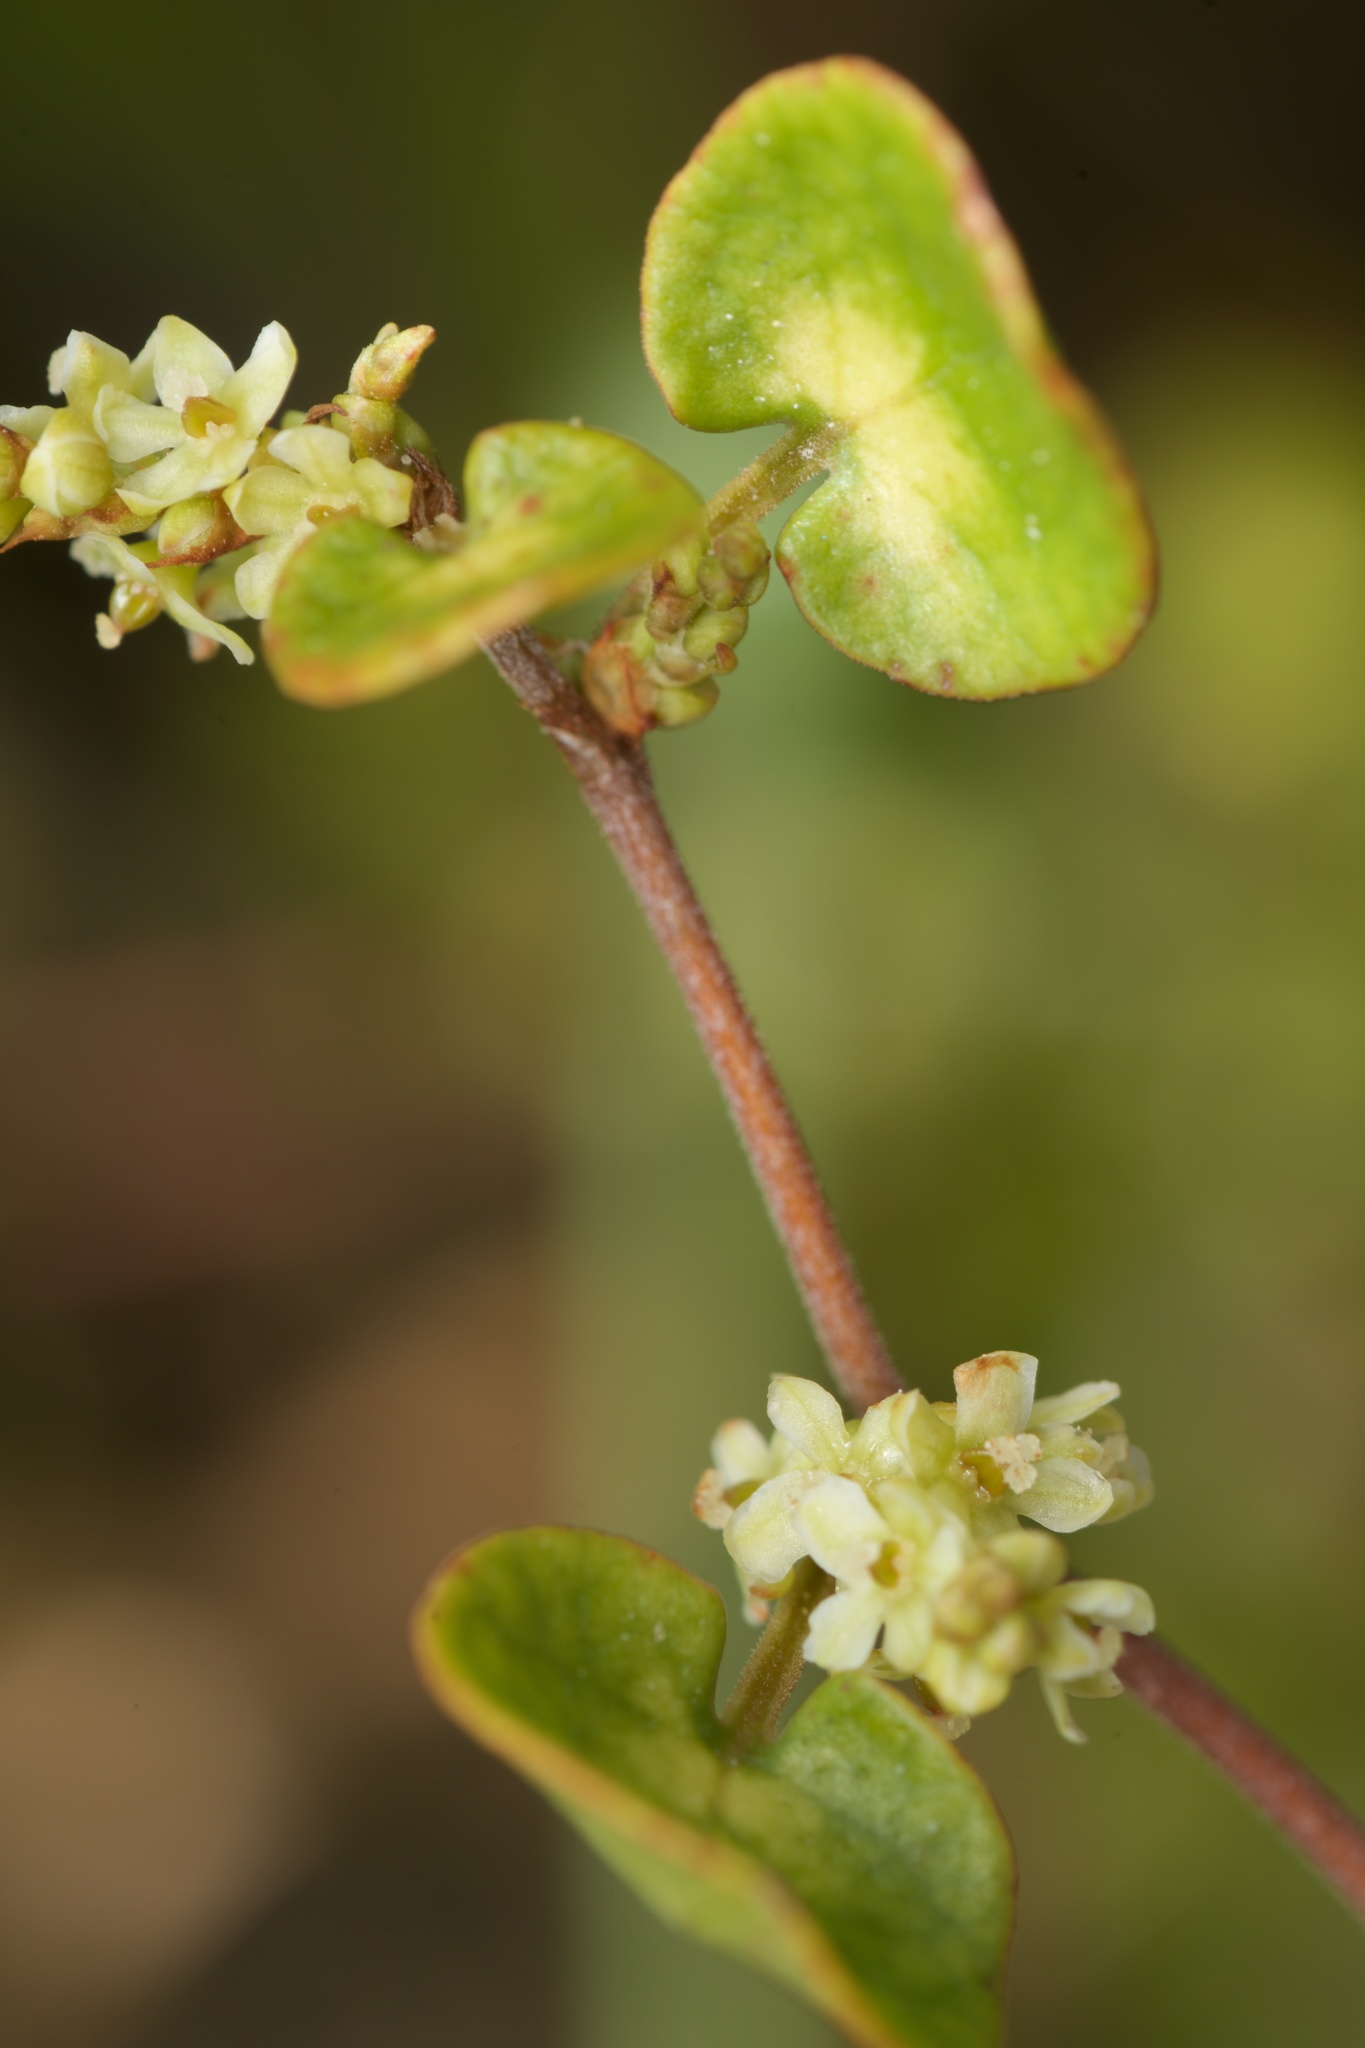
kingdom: Plantae
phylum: Tracheophyta
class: Magnoliopsida
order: Caryophyllales
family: Polygonaceae
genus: Muehlenbeckia
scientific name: Muehlenbeckia complexa
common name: Wireplant
